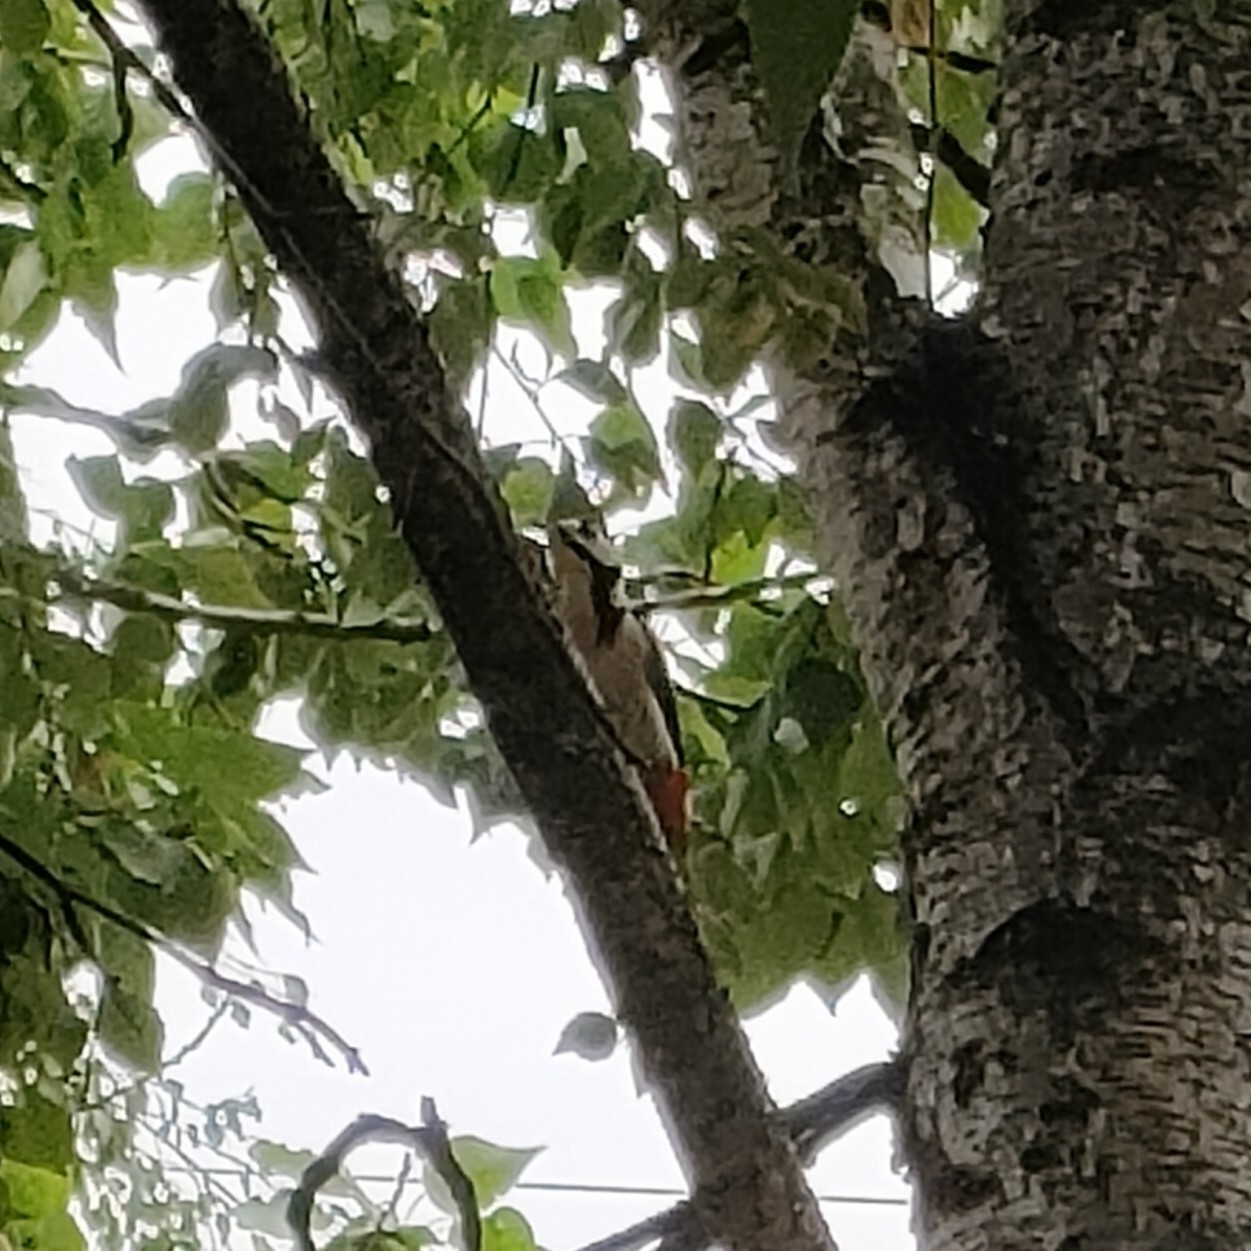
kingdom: Animalia
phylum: Chordata
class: Aves
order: Piciformes
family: Picidae
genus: Dendrocopos
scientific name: Dendrocopos major
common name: Great spotted woodpecker
